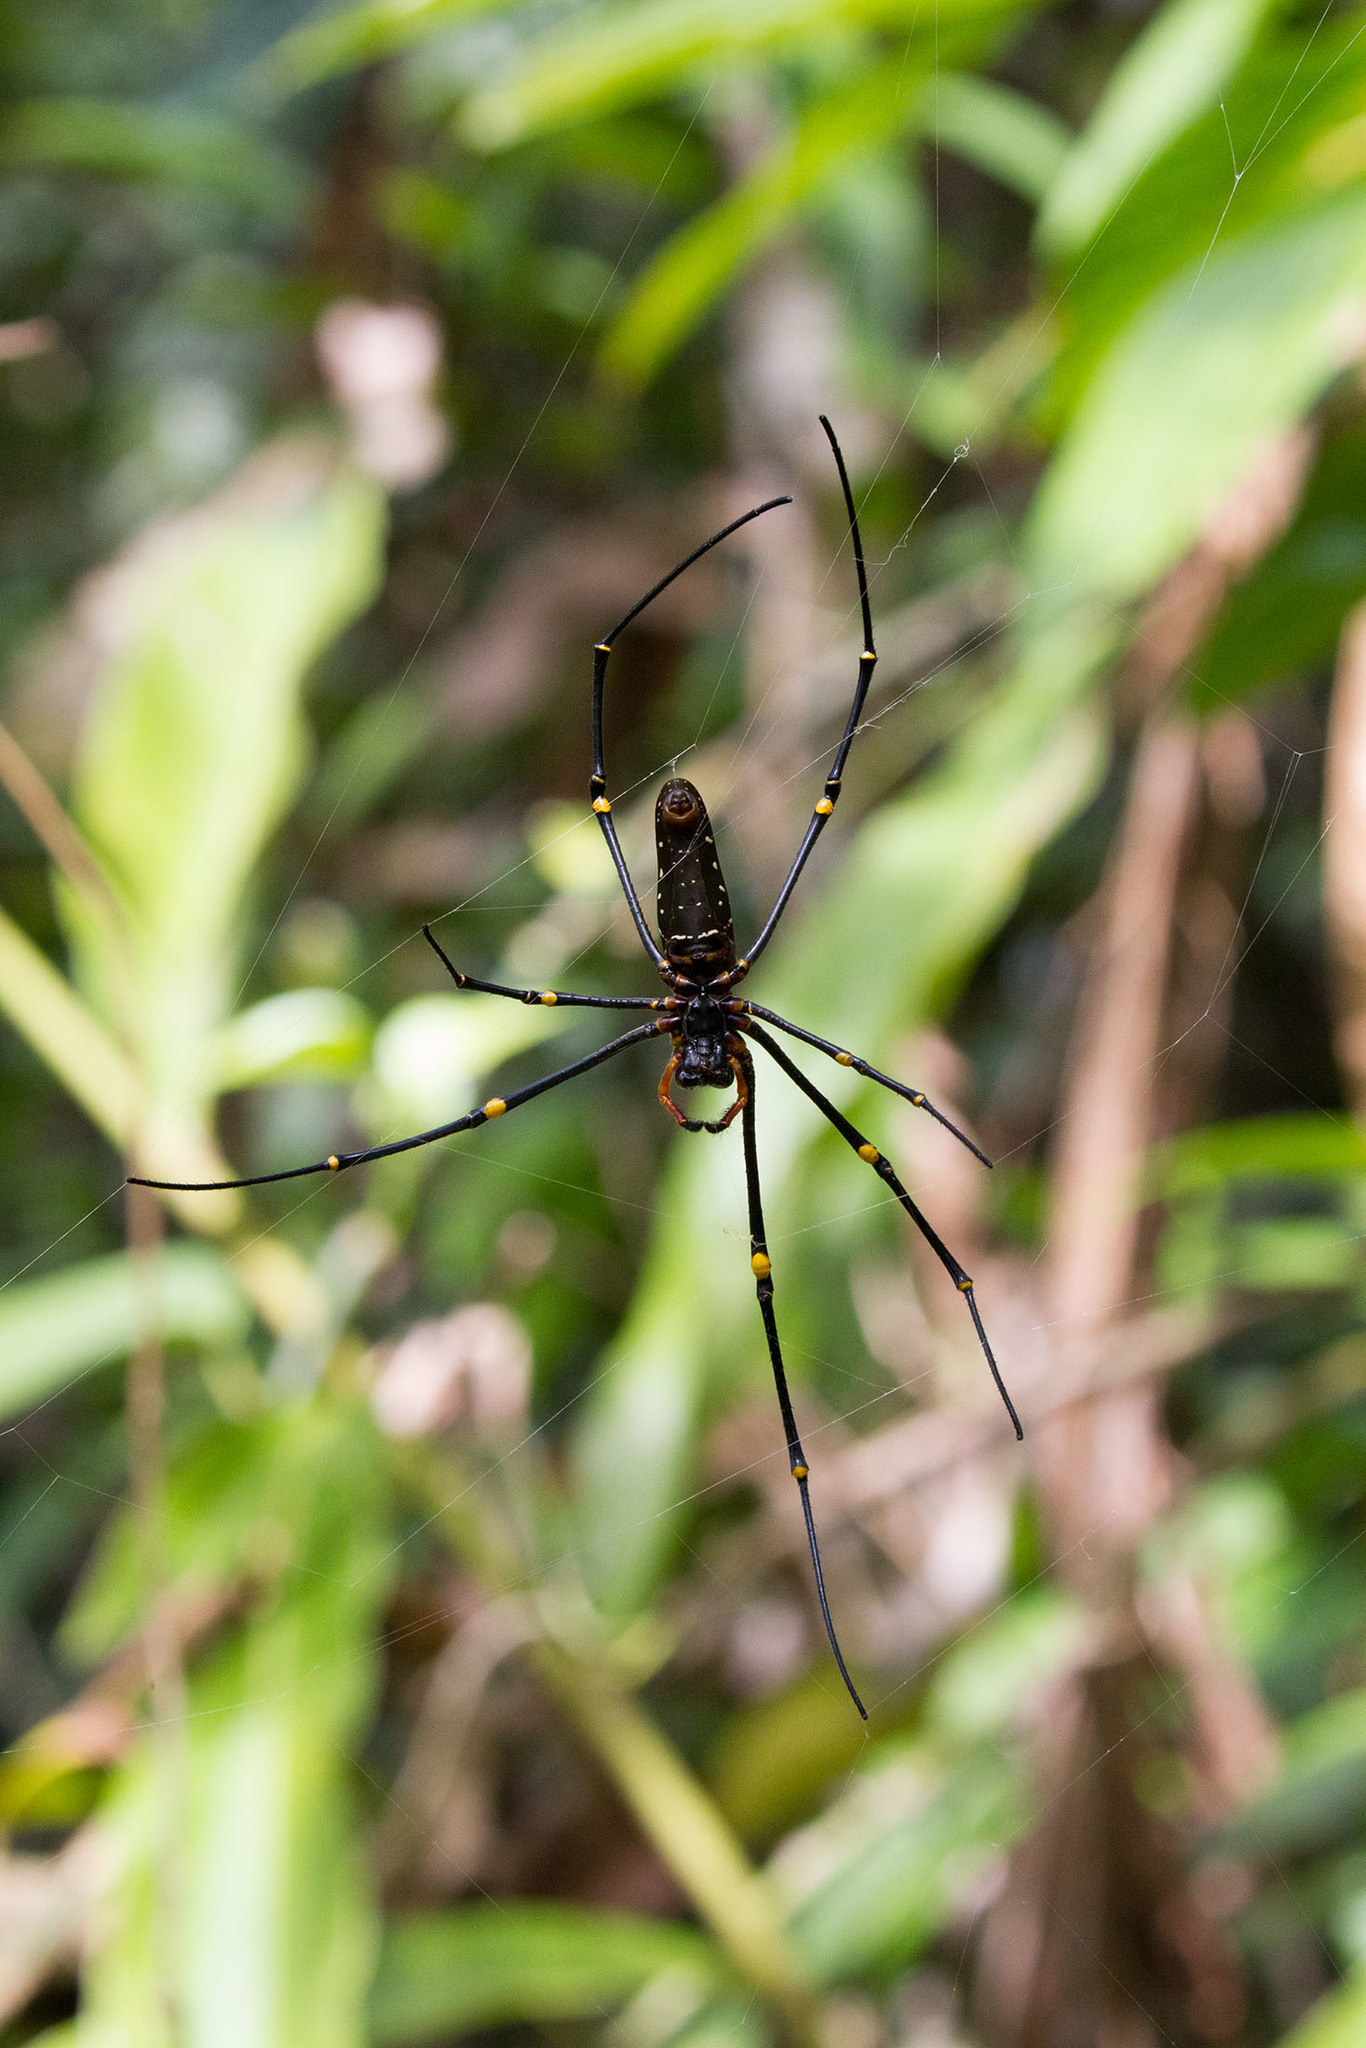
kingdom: Animalia
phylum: Arthropoda
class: Arachnida
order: Araneae
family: Araneidae
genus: Nephila
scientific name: Nephila pilipes
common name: Giant golden orb weaver
